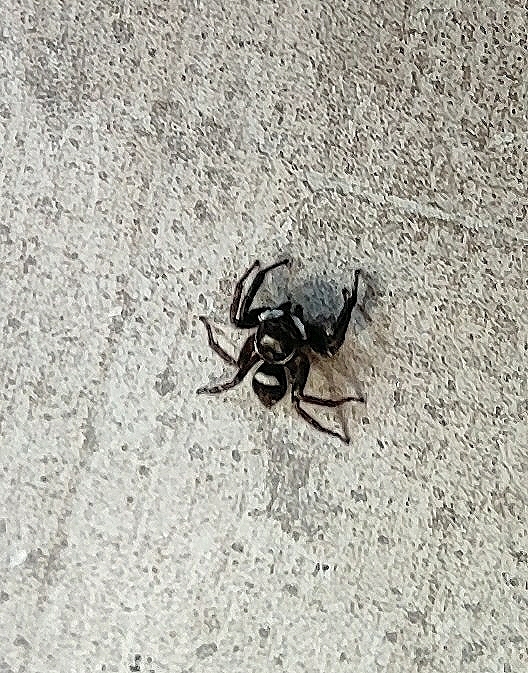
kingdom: Animalia
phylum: Arthropoda
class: Arachnida
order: Araneae
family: Salticidae
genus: Hasarius
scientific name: Hasarius adansoni
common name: Jumping spider
